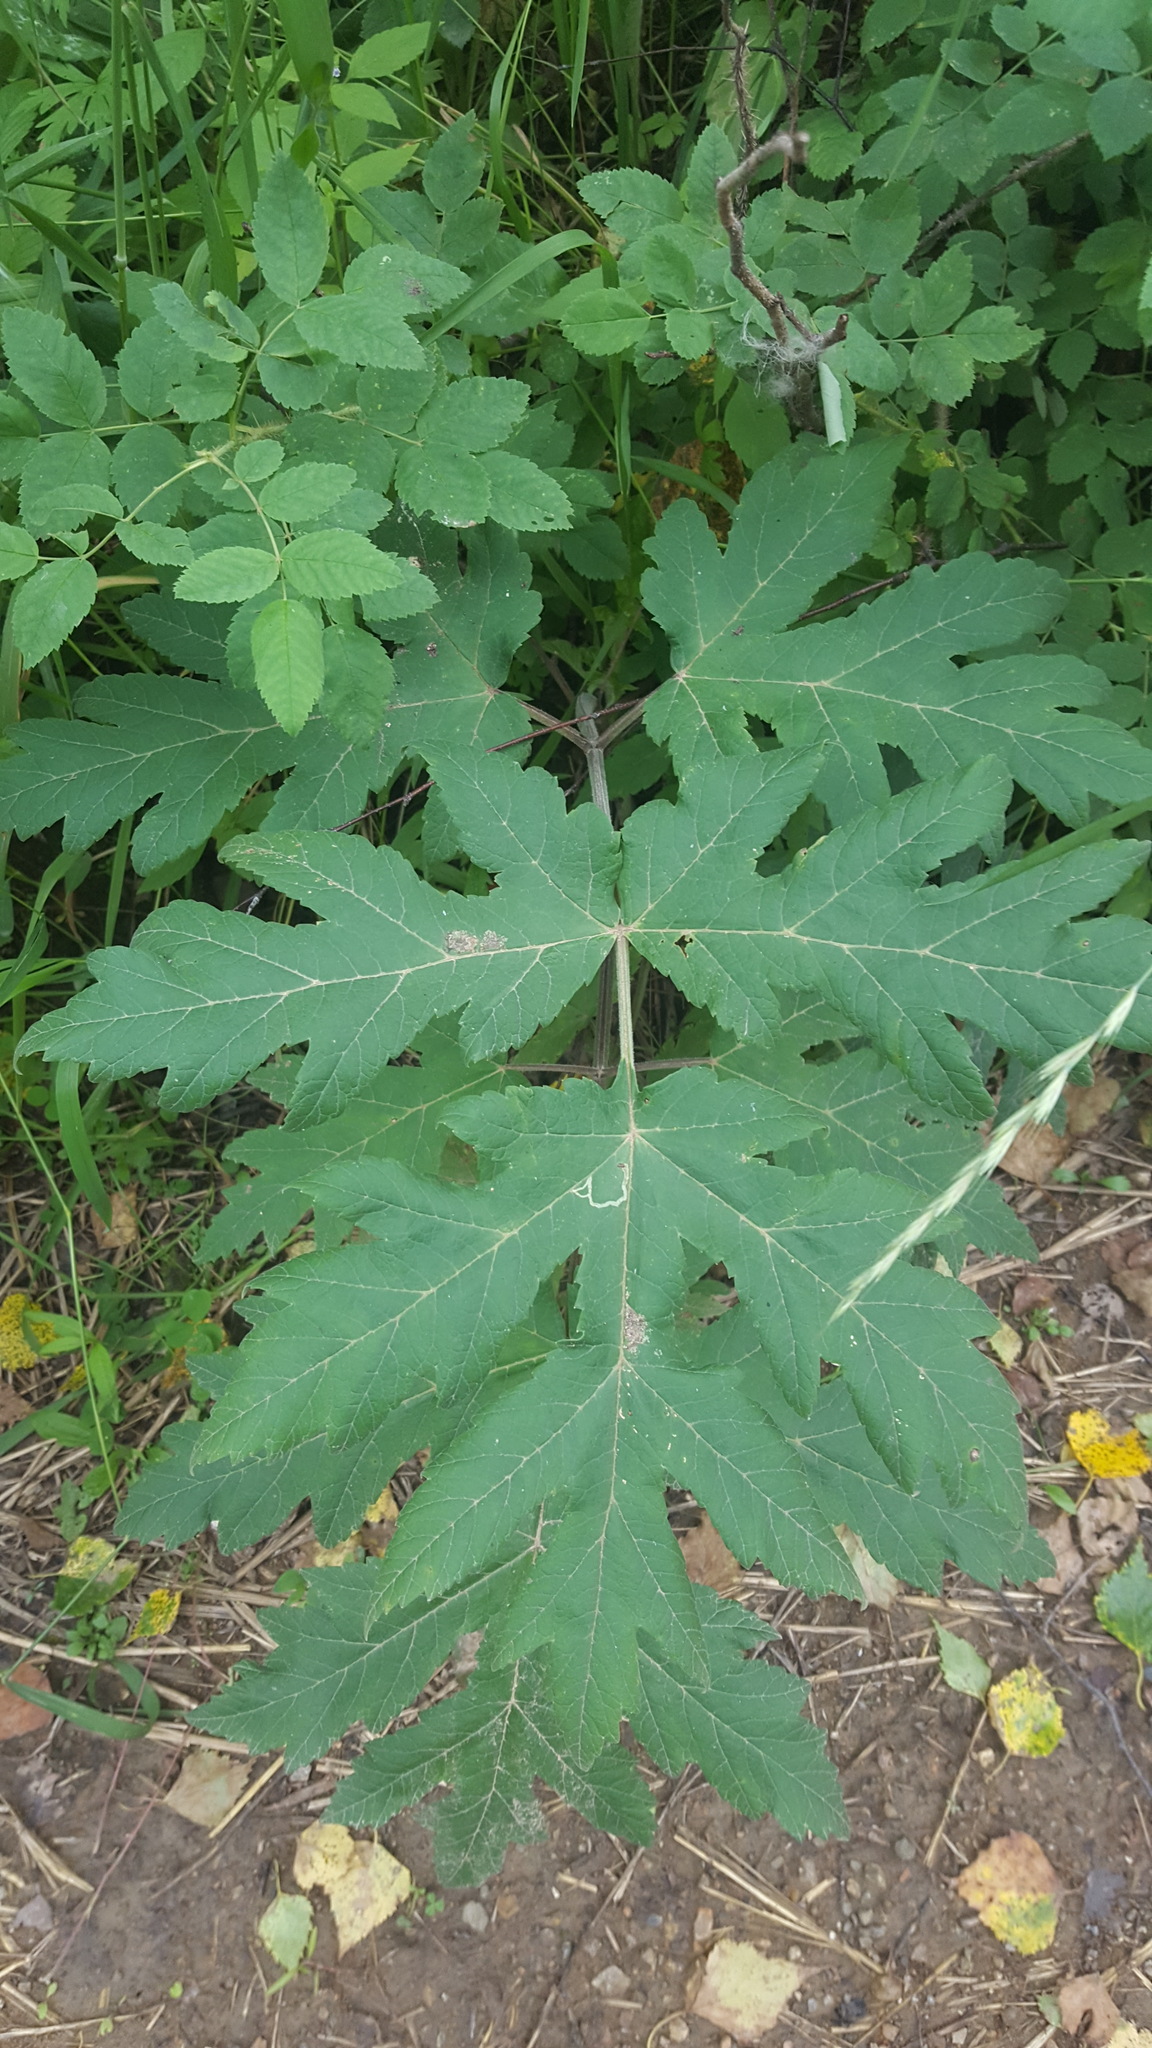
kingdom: Plantae
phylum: Tracheophyta
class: Magnoliopsida
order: Apiales
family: Apiaceae
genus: Heracleum
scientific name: Heracleum dissectum
